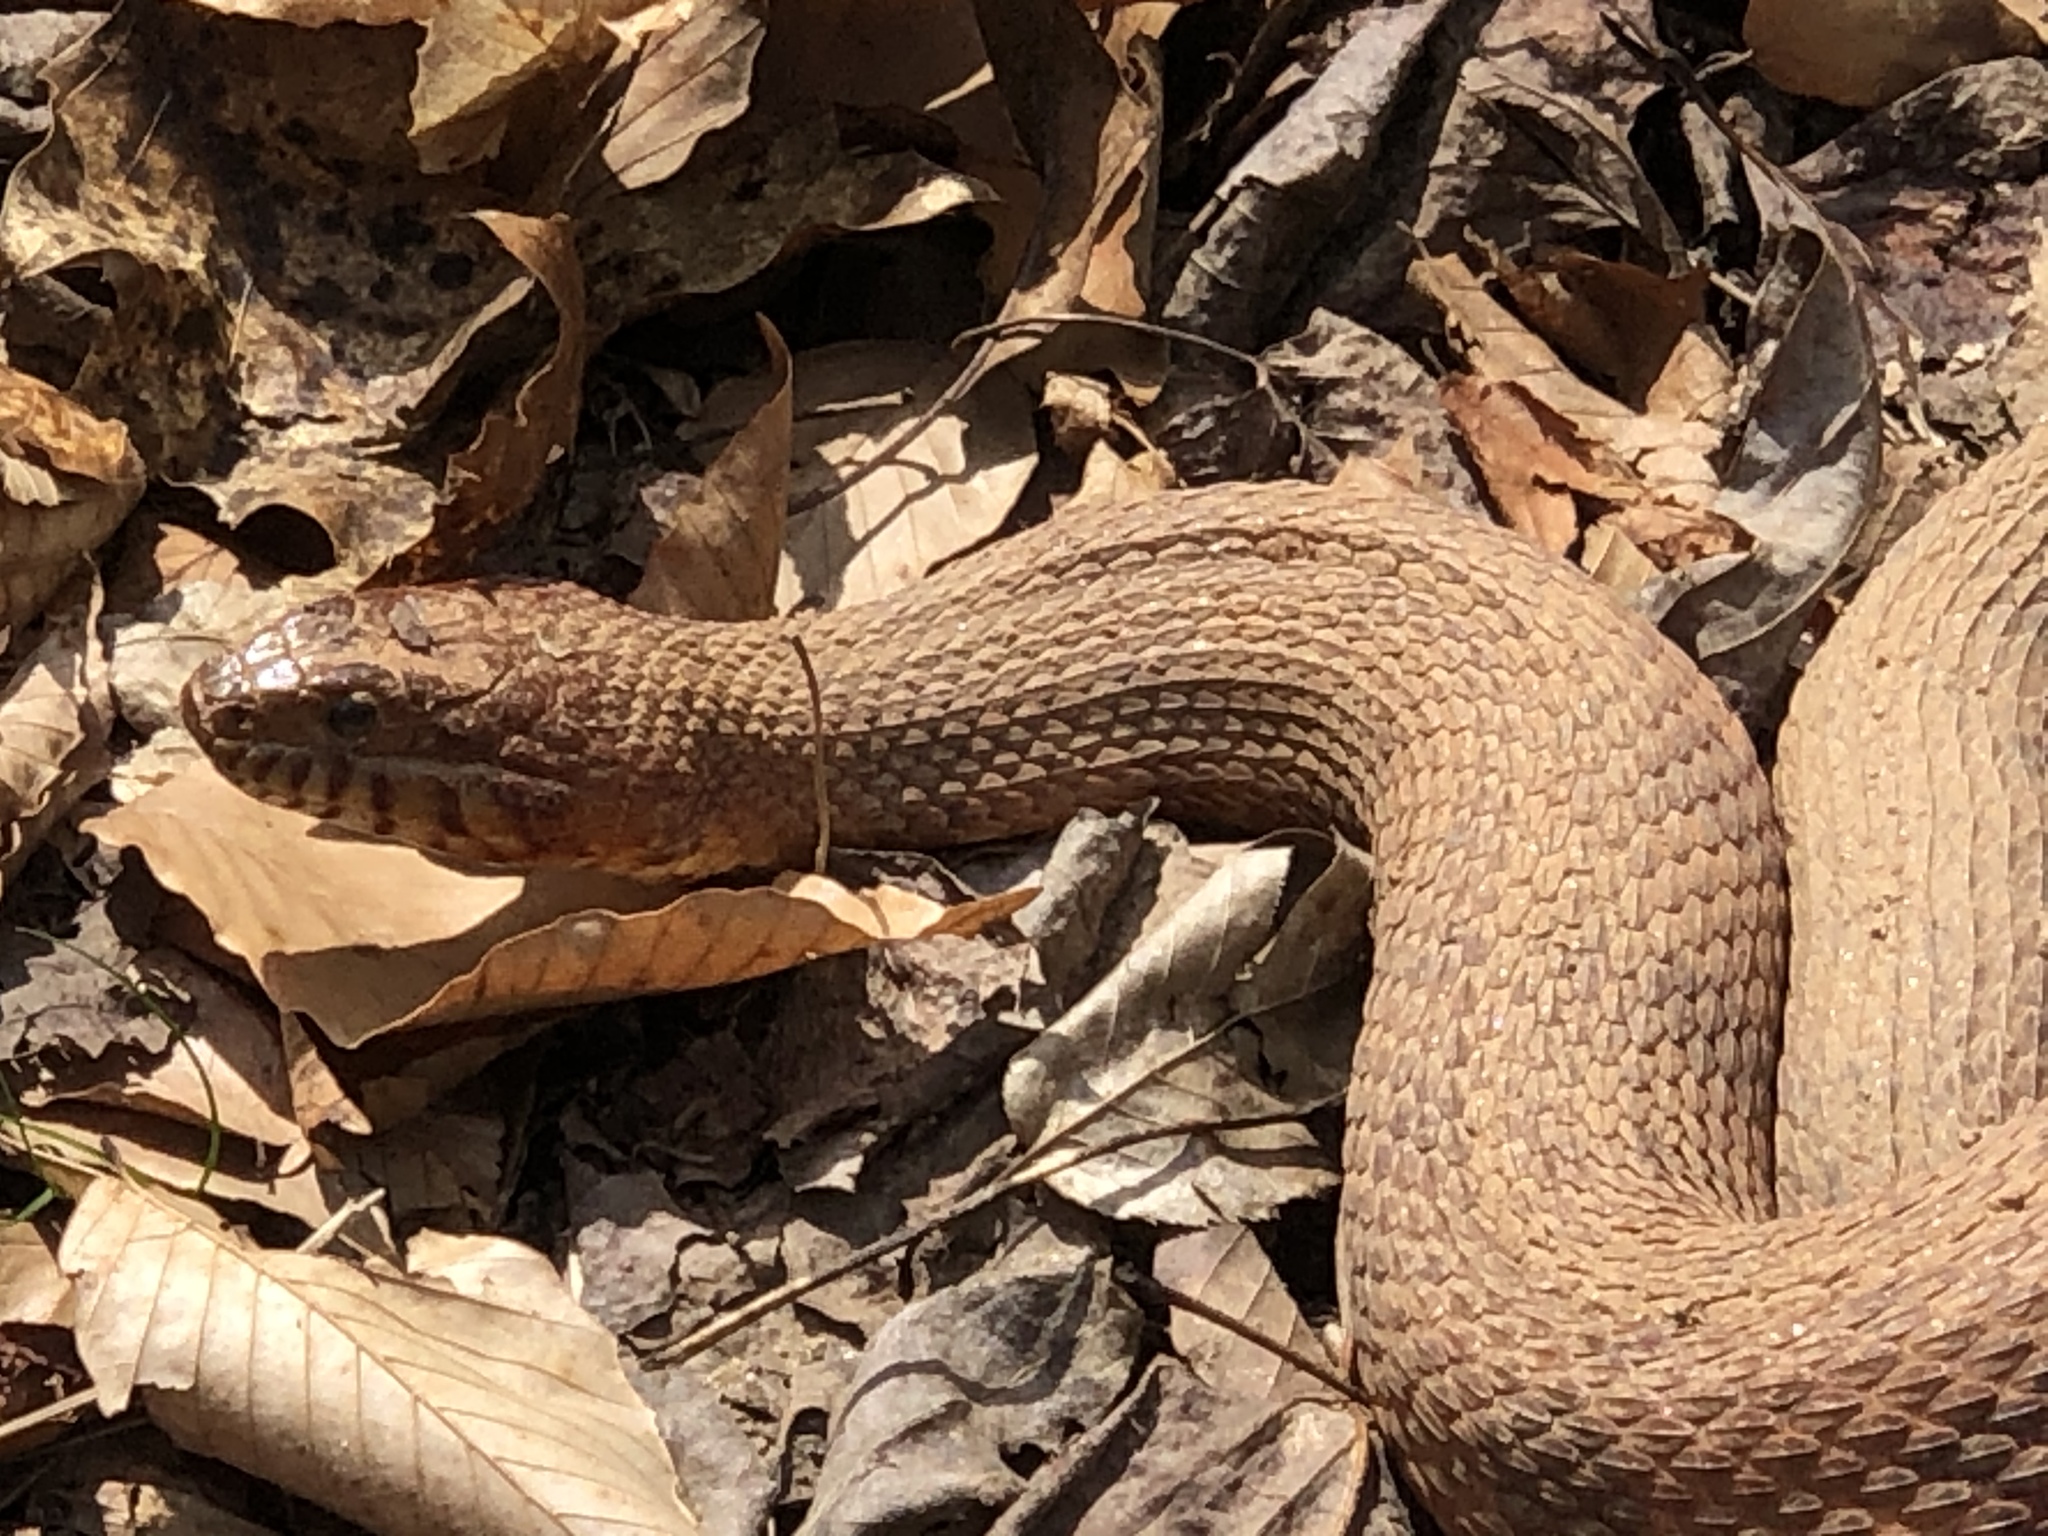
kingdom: Animalia
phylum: Chordata
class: Squamata
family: Colubridae
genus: Nerodia
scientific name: Nerodia sipedon
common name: Northern water snake
